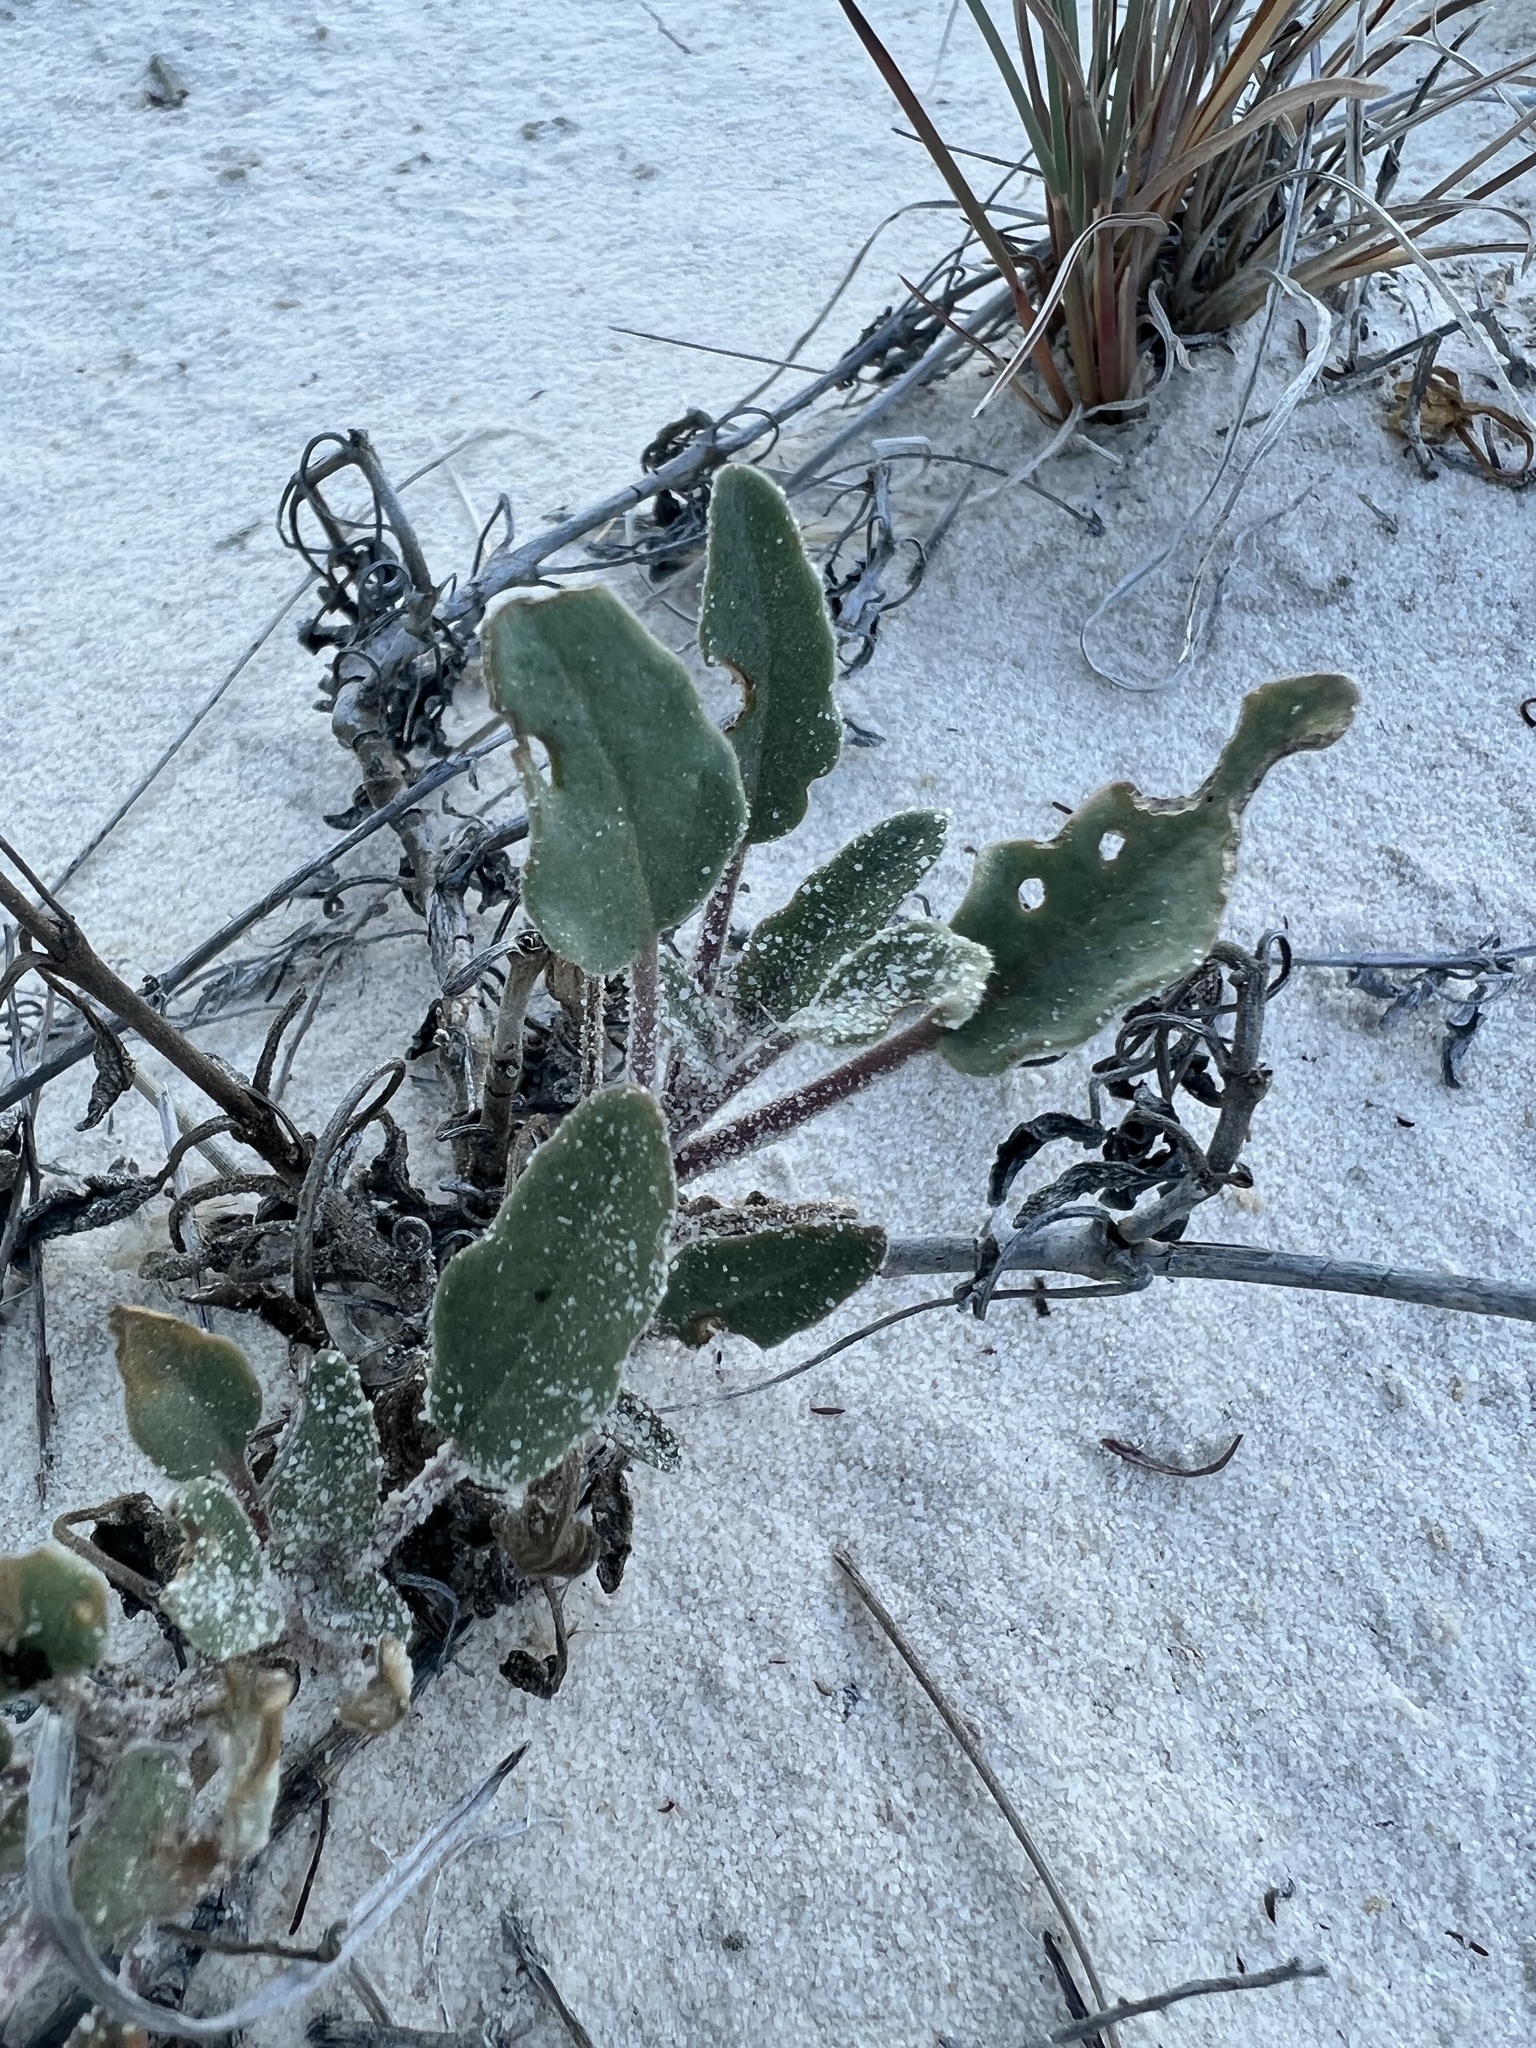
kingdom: Plantae
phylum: Tracheophyta
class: Magnoliopsida
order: Caryophyllales
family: Nyctaginaceae
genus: Abronia
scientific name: Abronia angustifolia
